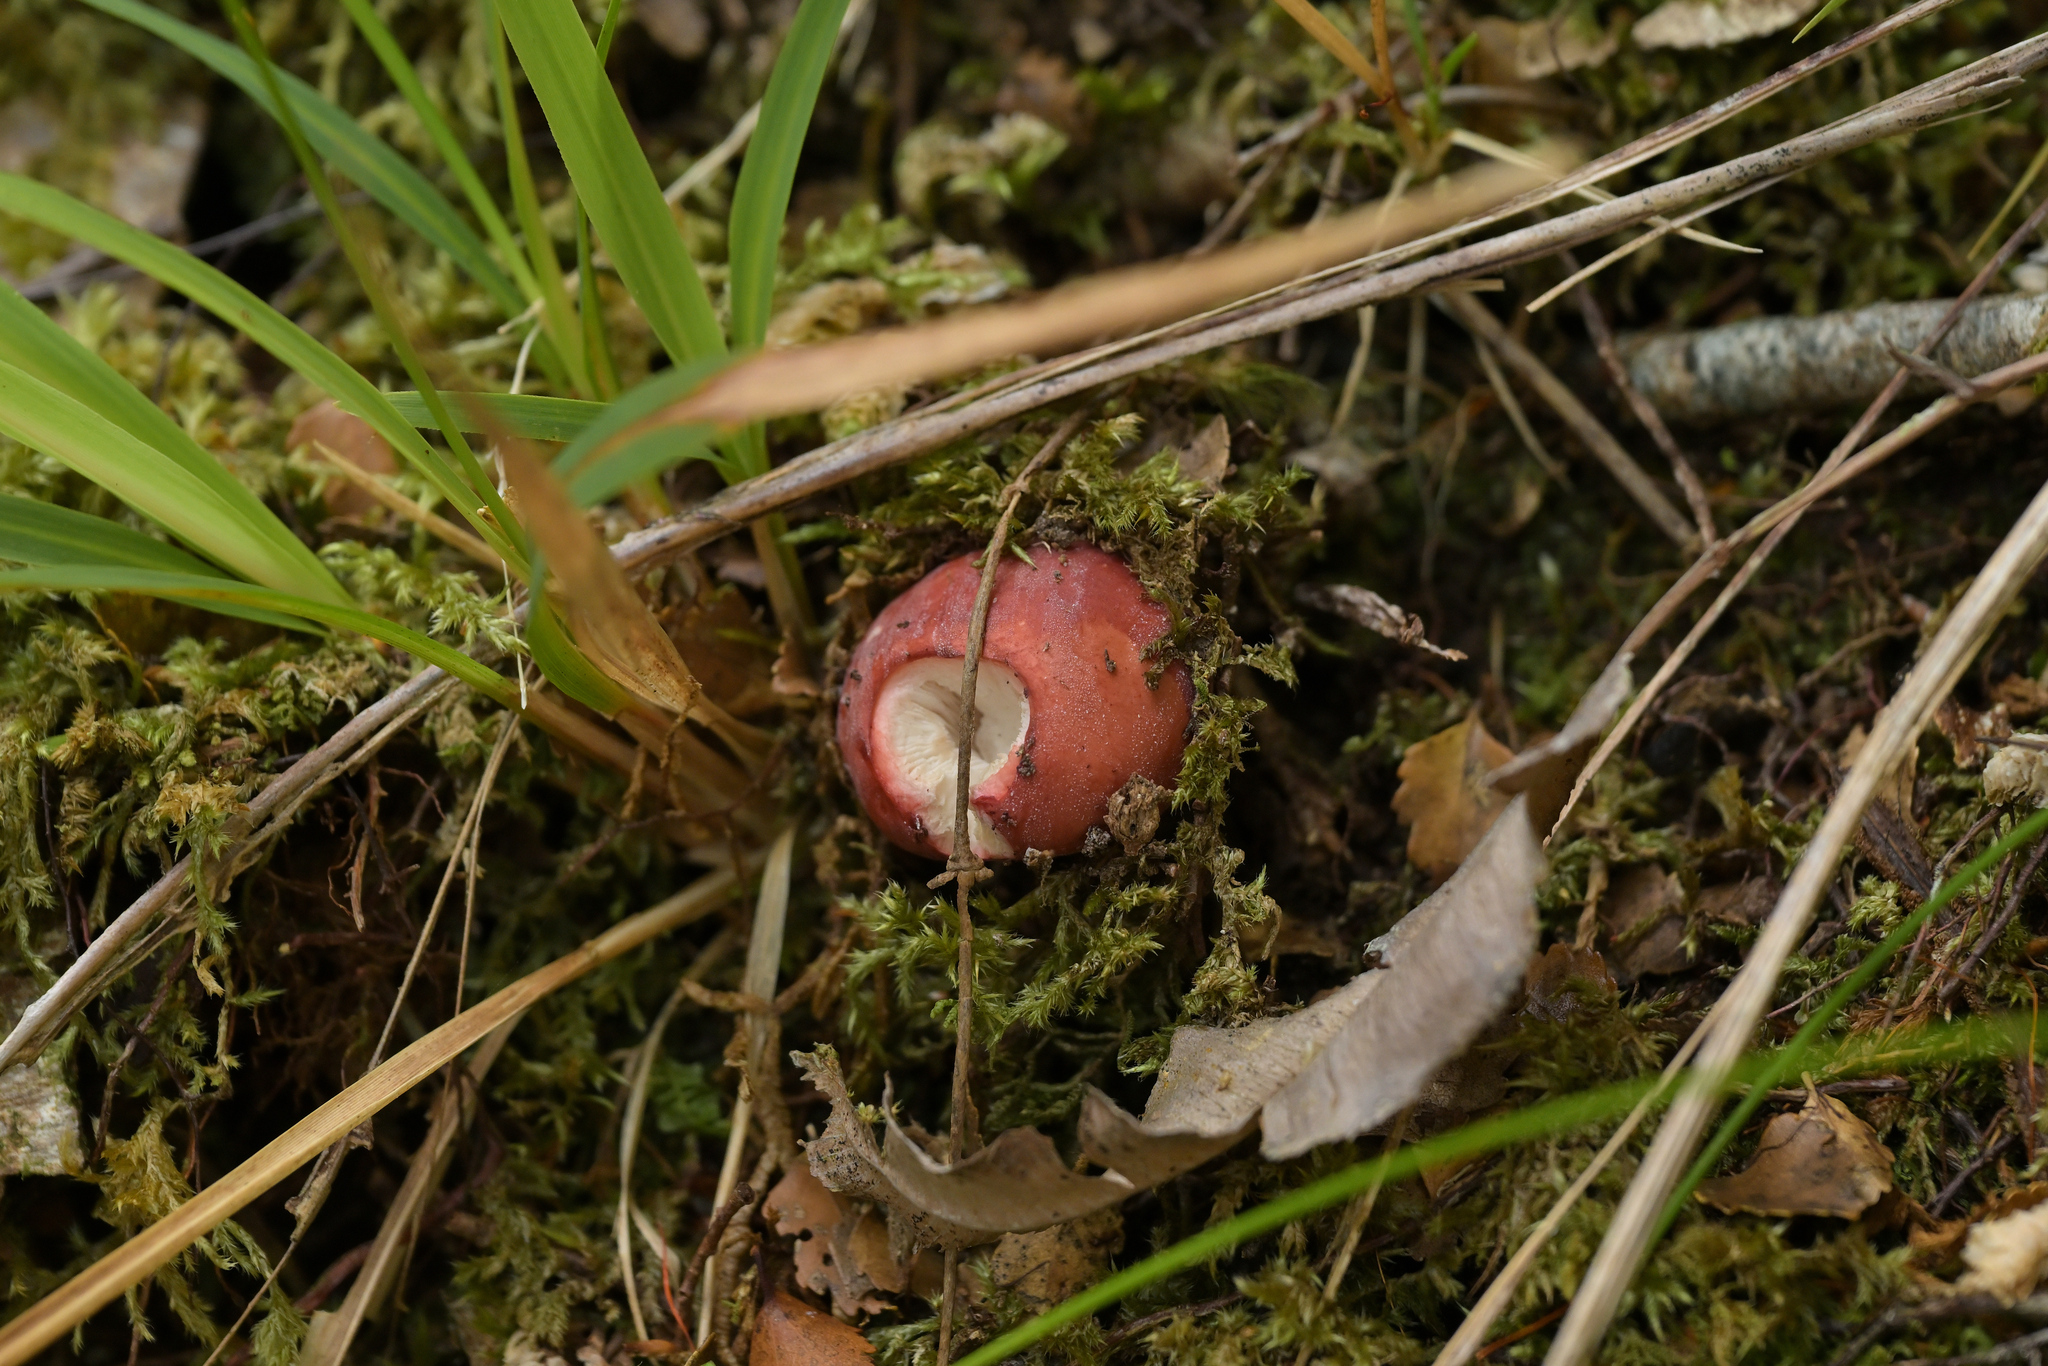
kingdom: Fungi
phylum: Basidiomycota
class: Agaricomycetes
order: Russulales
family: Russulaceae
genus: Russula
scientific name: Russula kermesina
